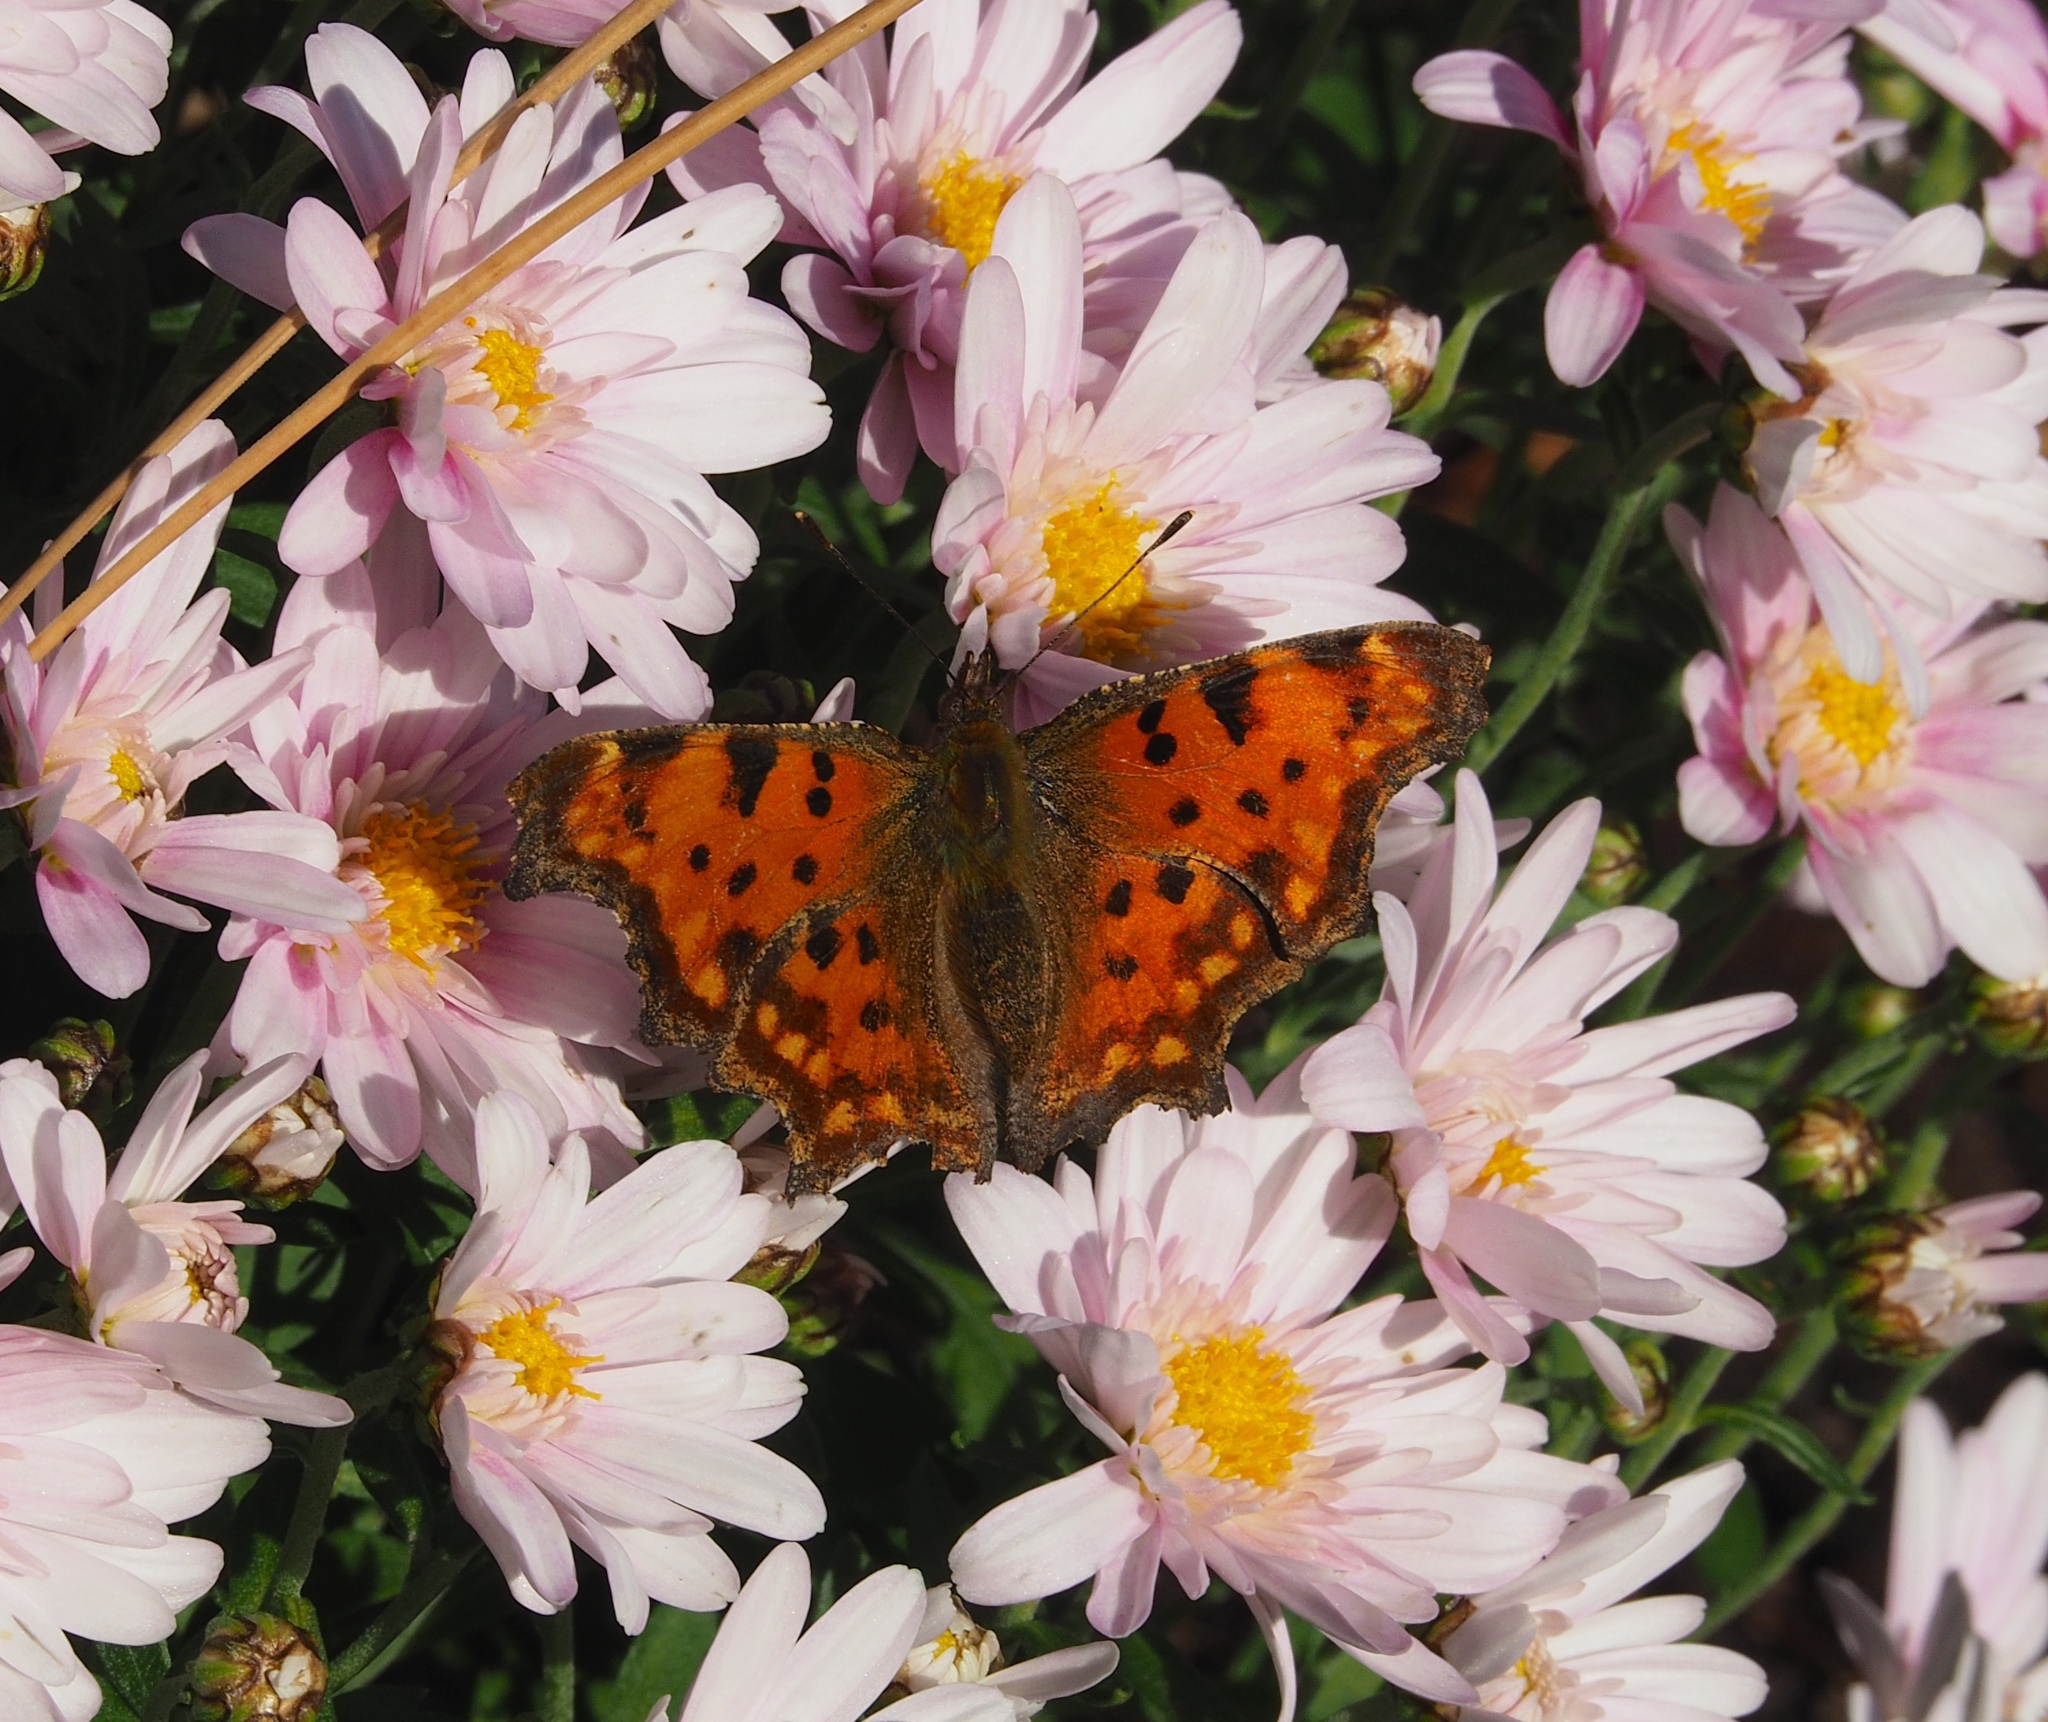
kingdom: Animalia
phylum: Arthropoda
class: Insecta
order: Lepidoptera
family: Nymphalidae
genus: Polygonia
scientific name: Polygonia c-album
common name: Comma
